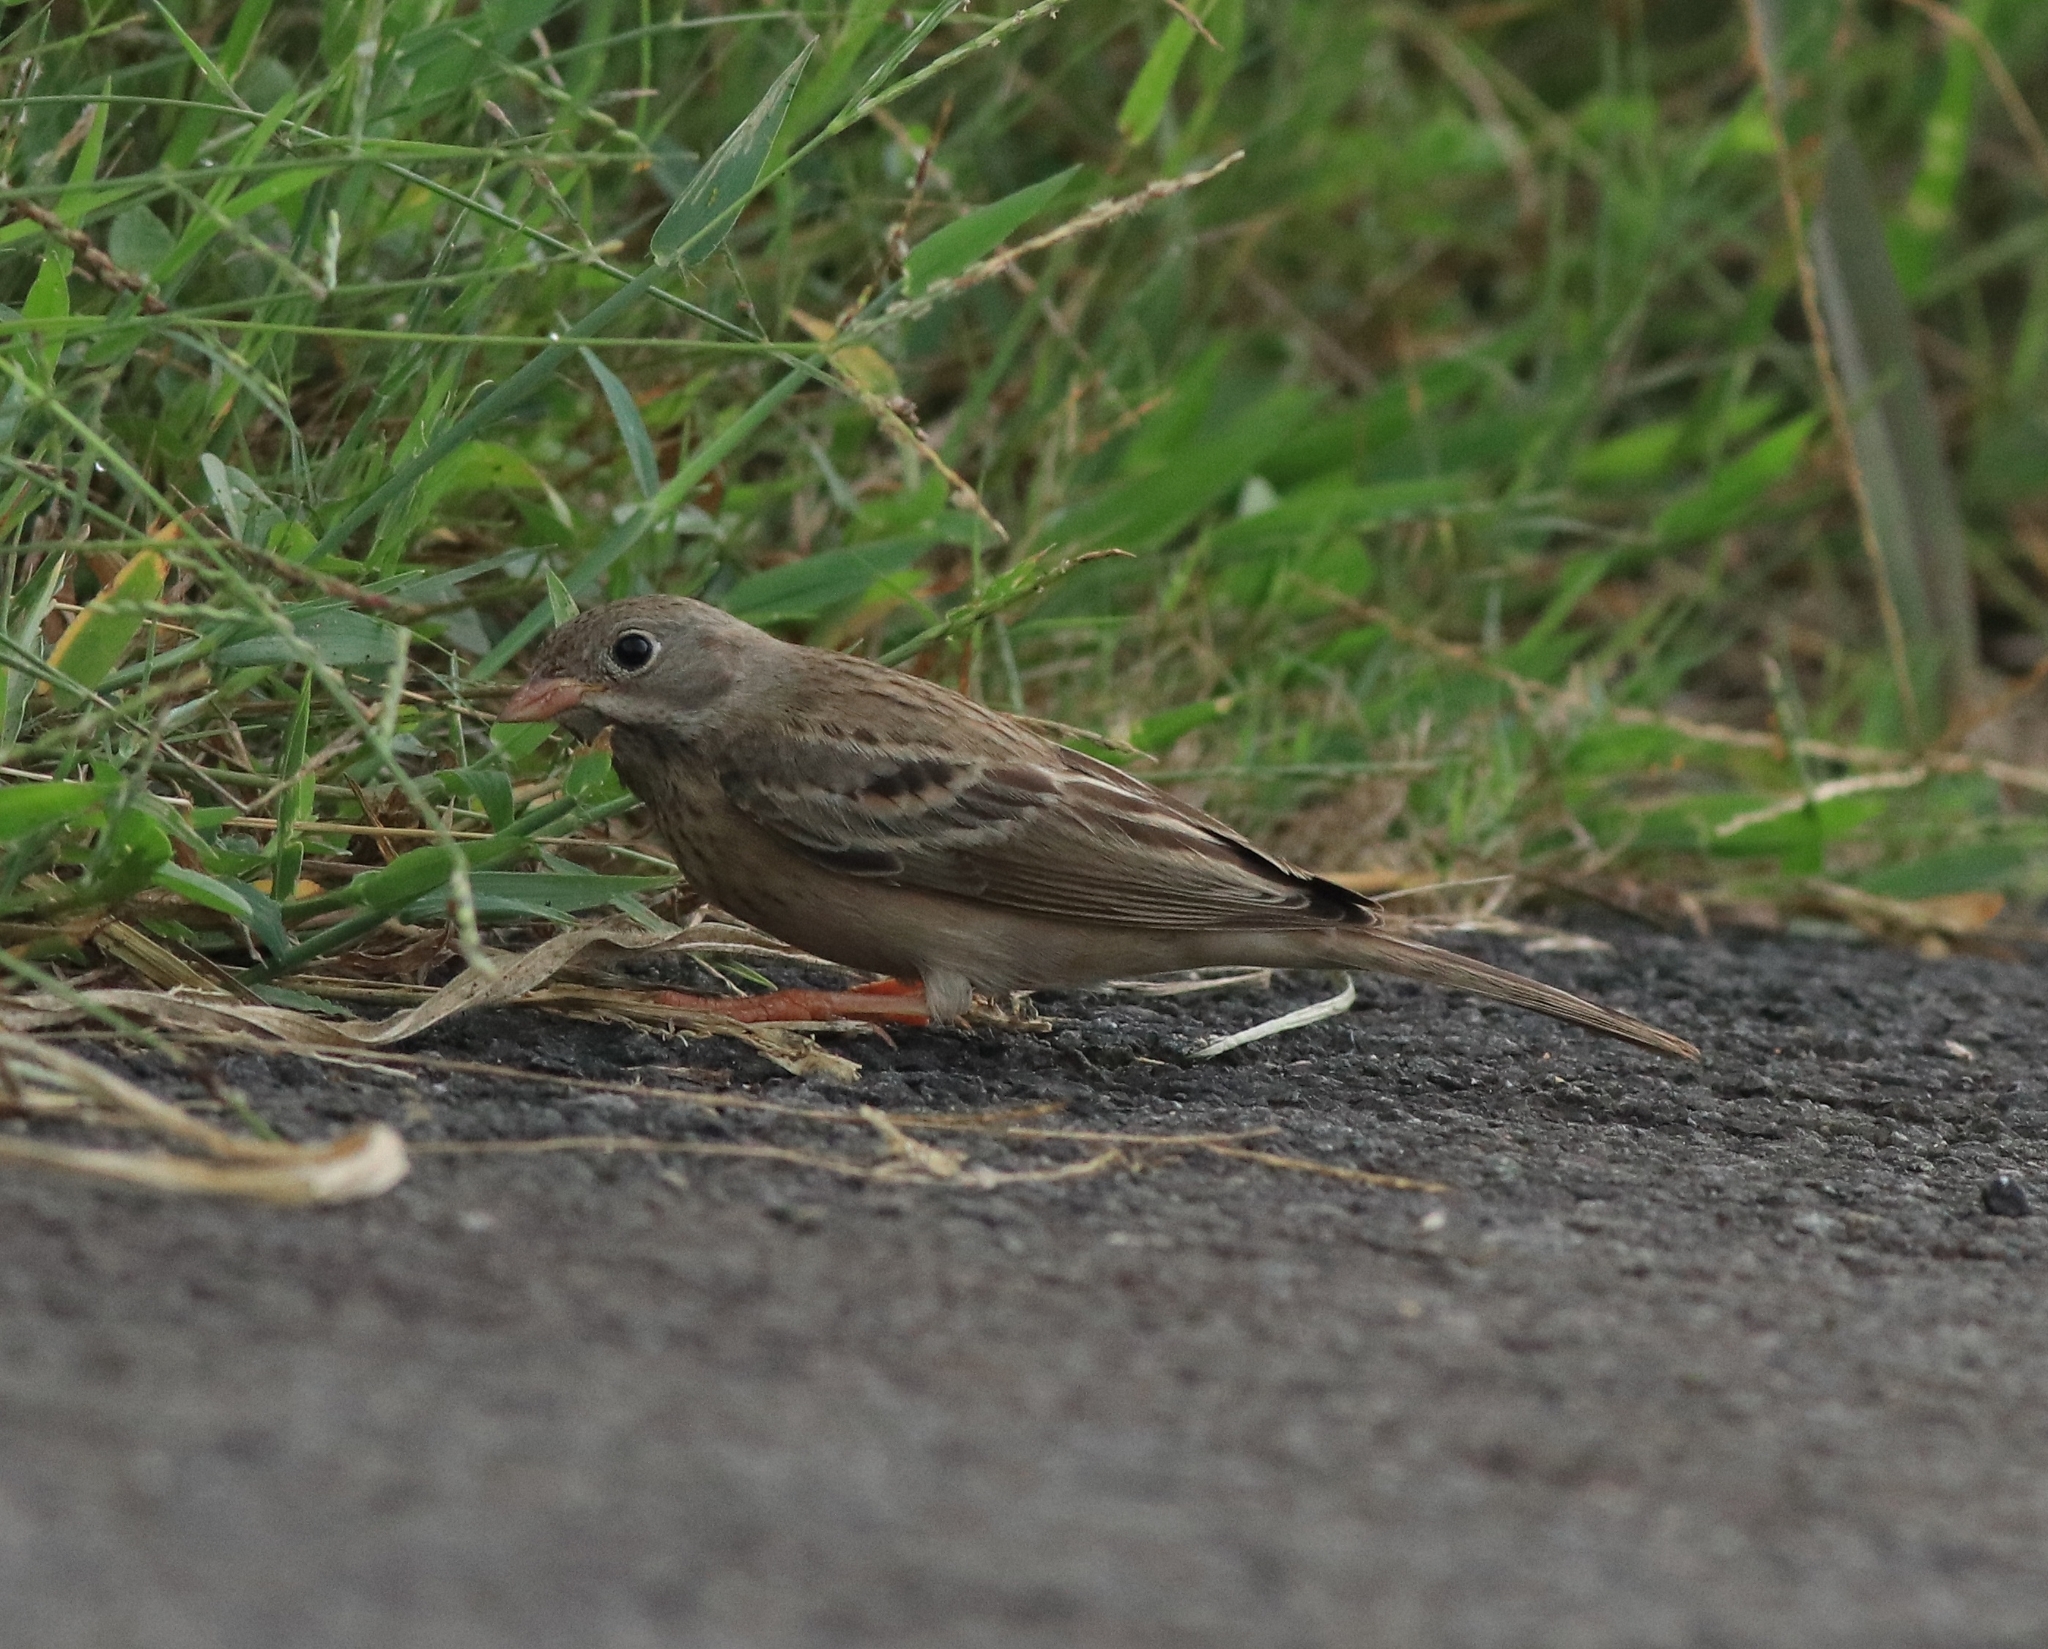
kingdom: Animalia
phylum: Chordata
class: Aves
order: Passeriformes
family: Emberizidae
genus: Emberiza
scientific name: Emberiza buchanani
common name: Grey-necked bunting
